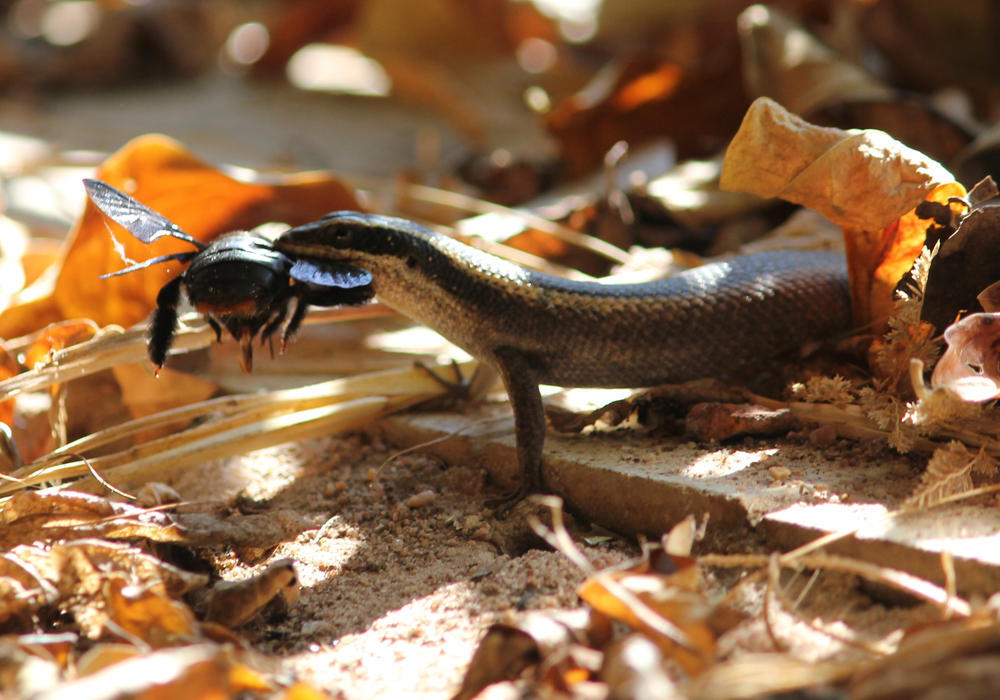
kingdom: Animalia
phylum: Chordata
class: Squamata
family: Scincidae
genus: Trachylepis
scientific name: Trachylepis punctatissima
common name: Montane speckled skink
